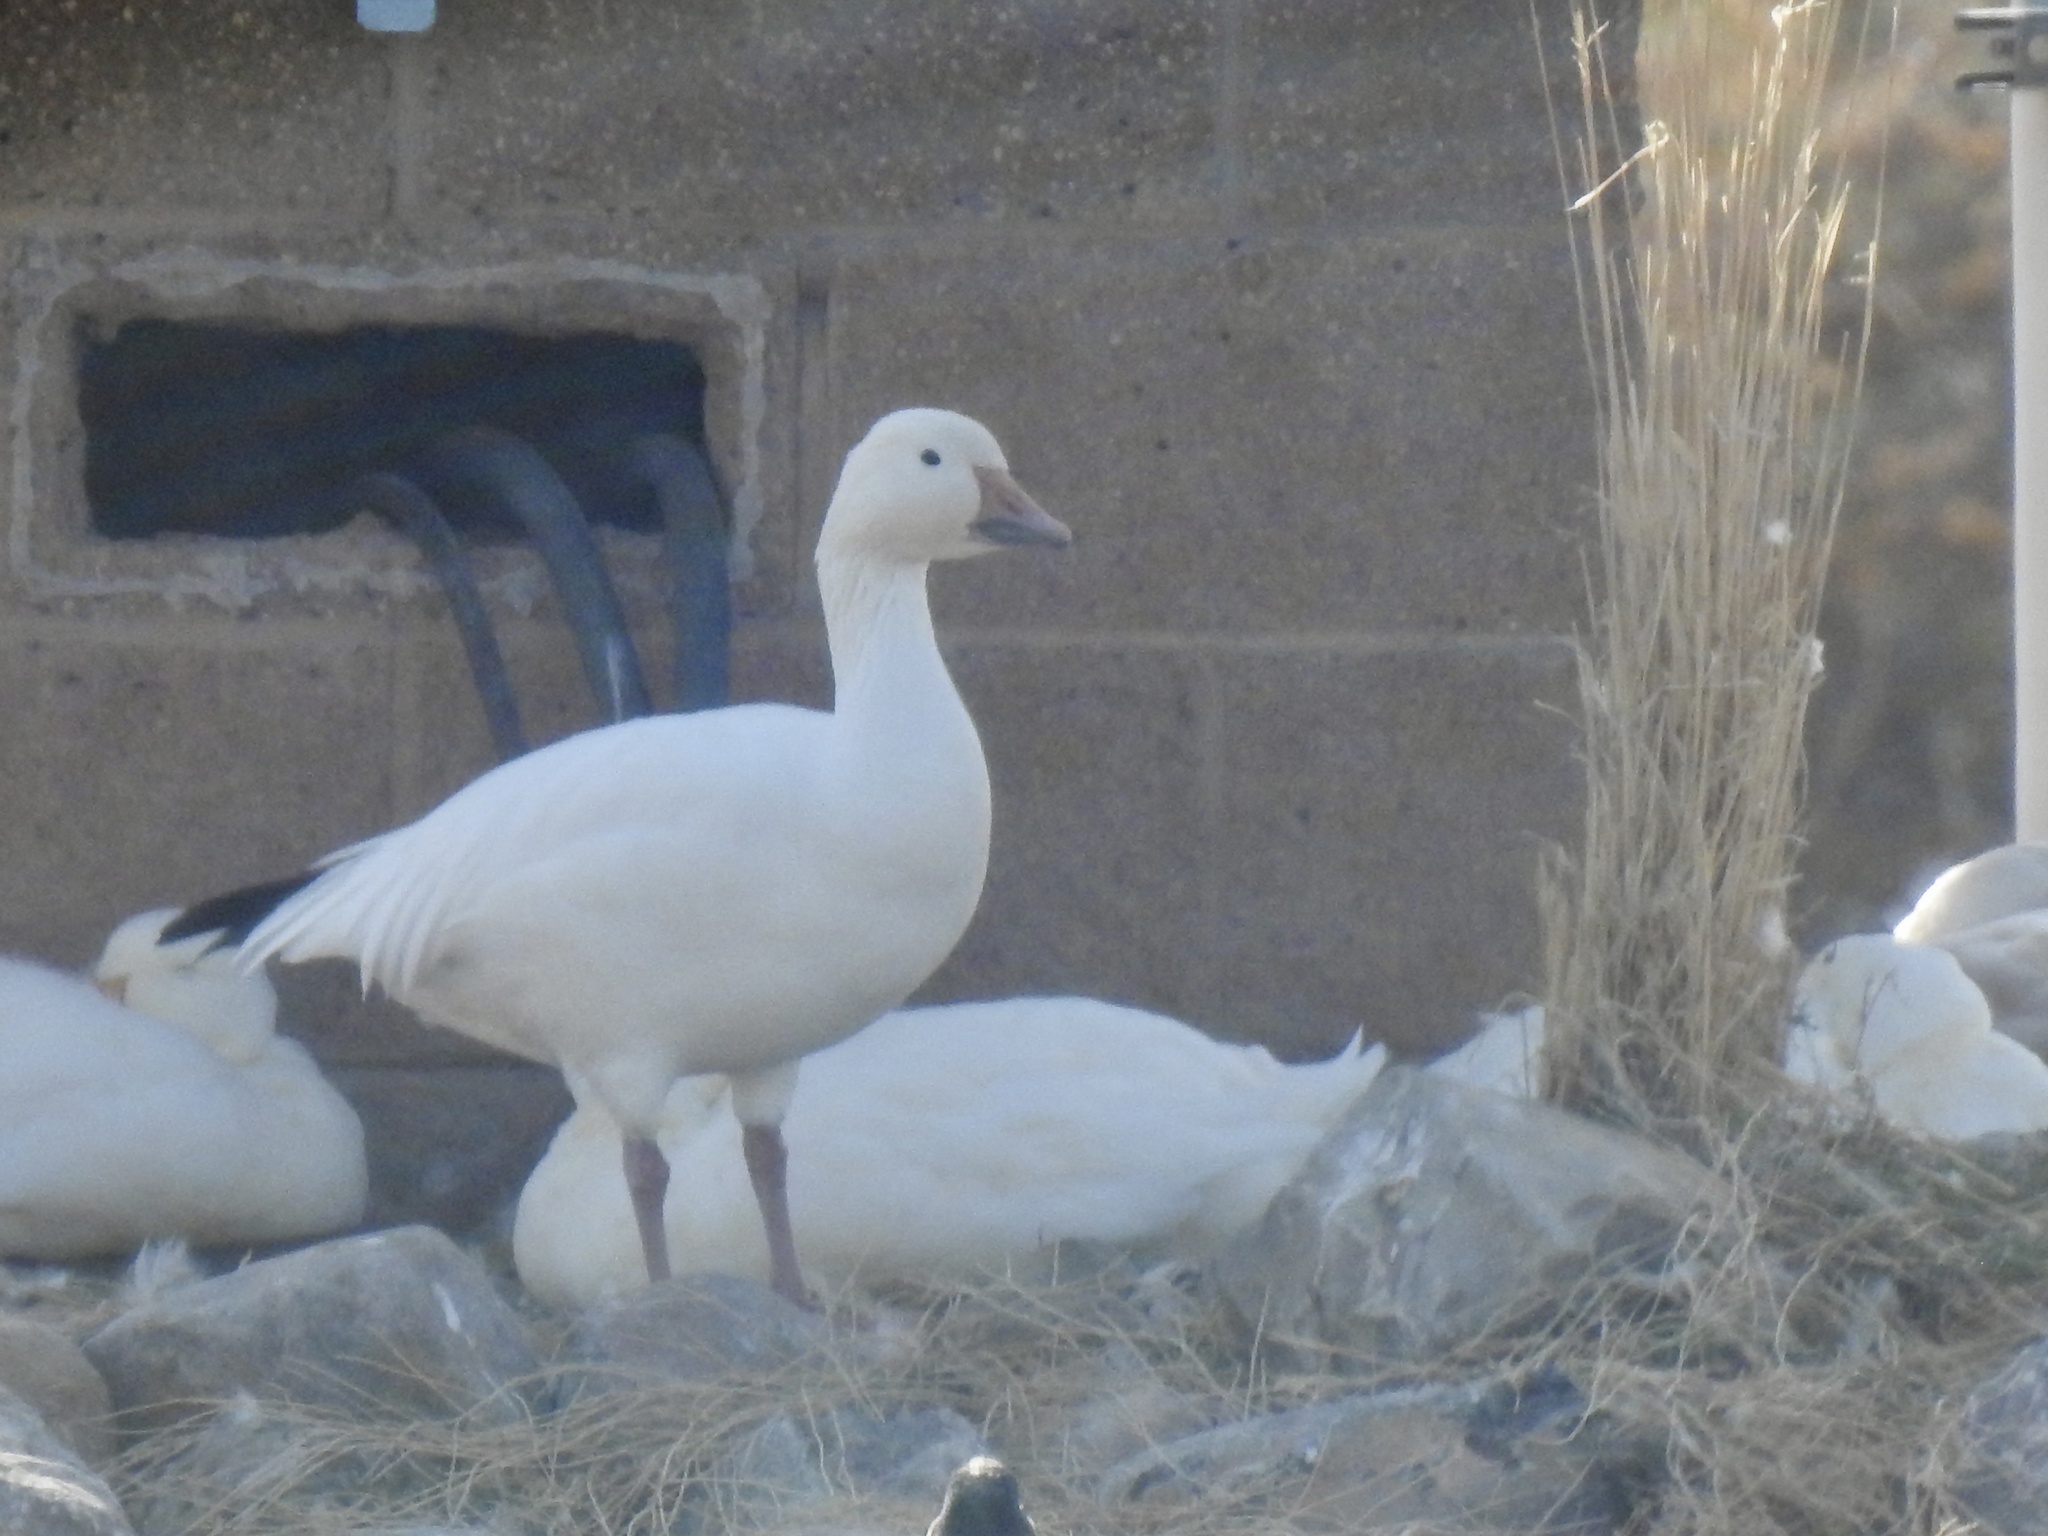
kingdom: Animalia
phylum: Chordata
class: Aves
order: Anseriformes
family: Anatidae
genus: Anser
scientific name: Anser caerulescens
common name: Snow goose
